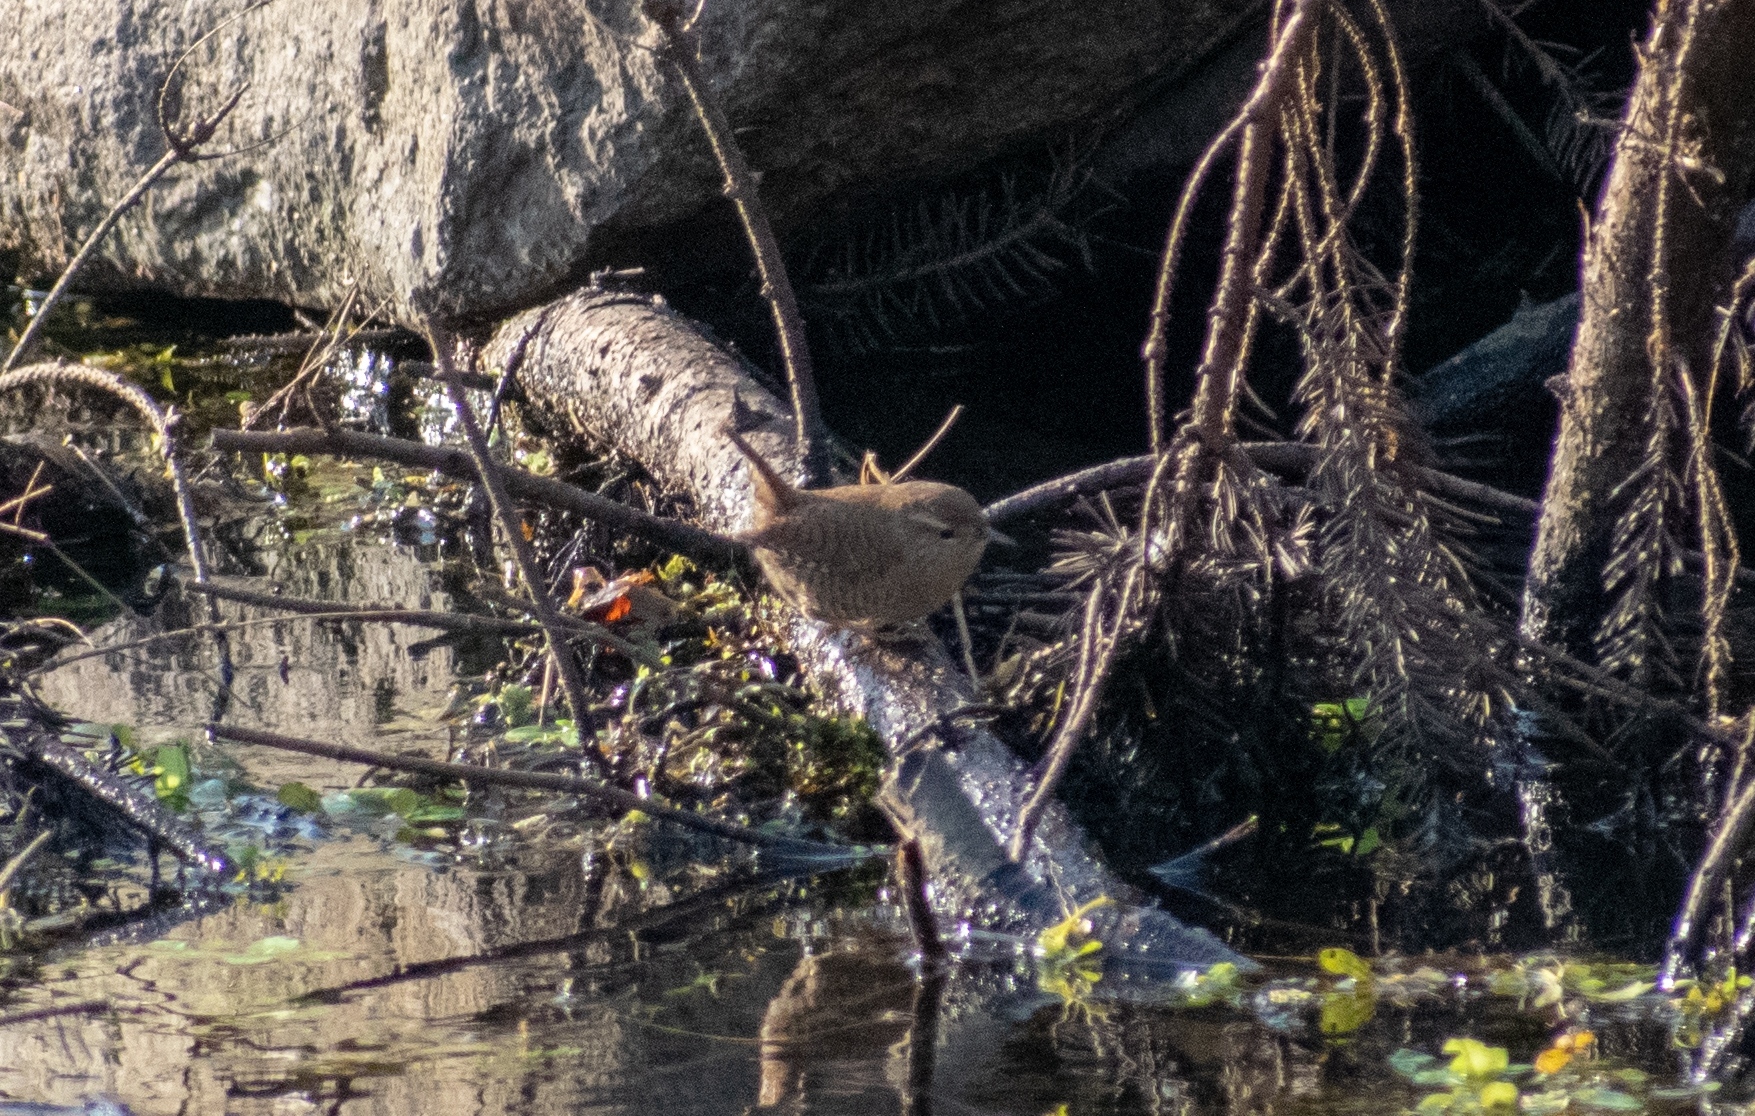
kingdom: Animalia
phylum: Chordata
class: Aves
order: Passeriformes
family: Troglodytidae
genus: Troglodytes
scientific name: Troglodytes troglodytes
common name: Eurasian wren
